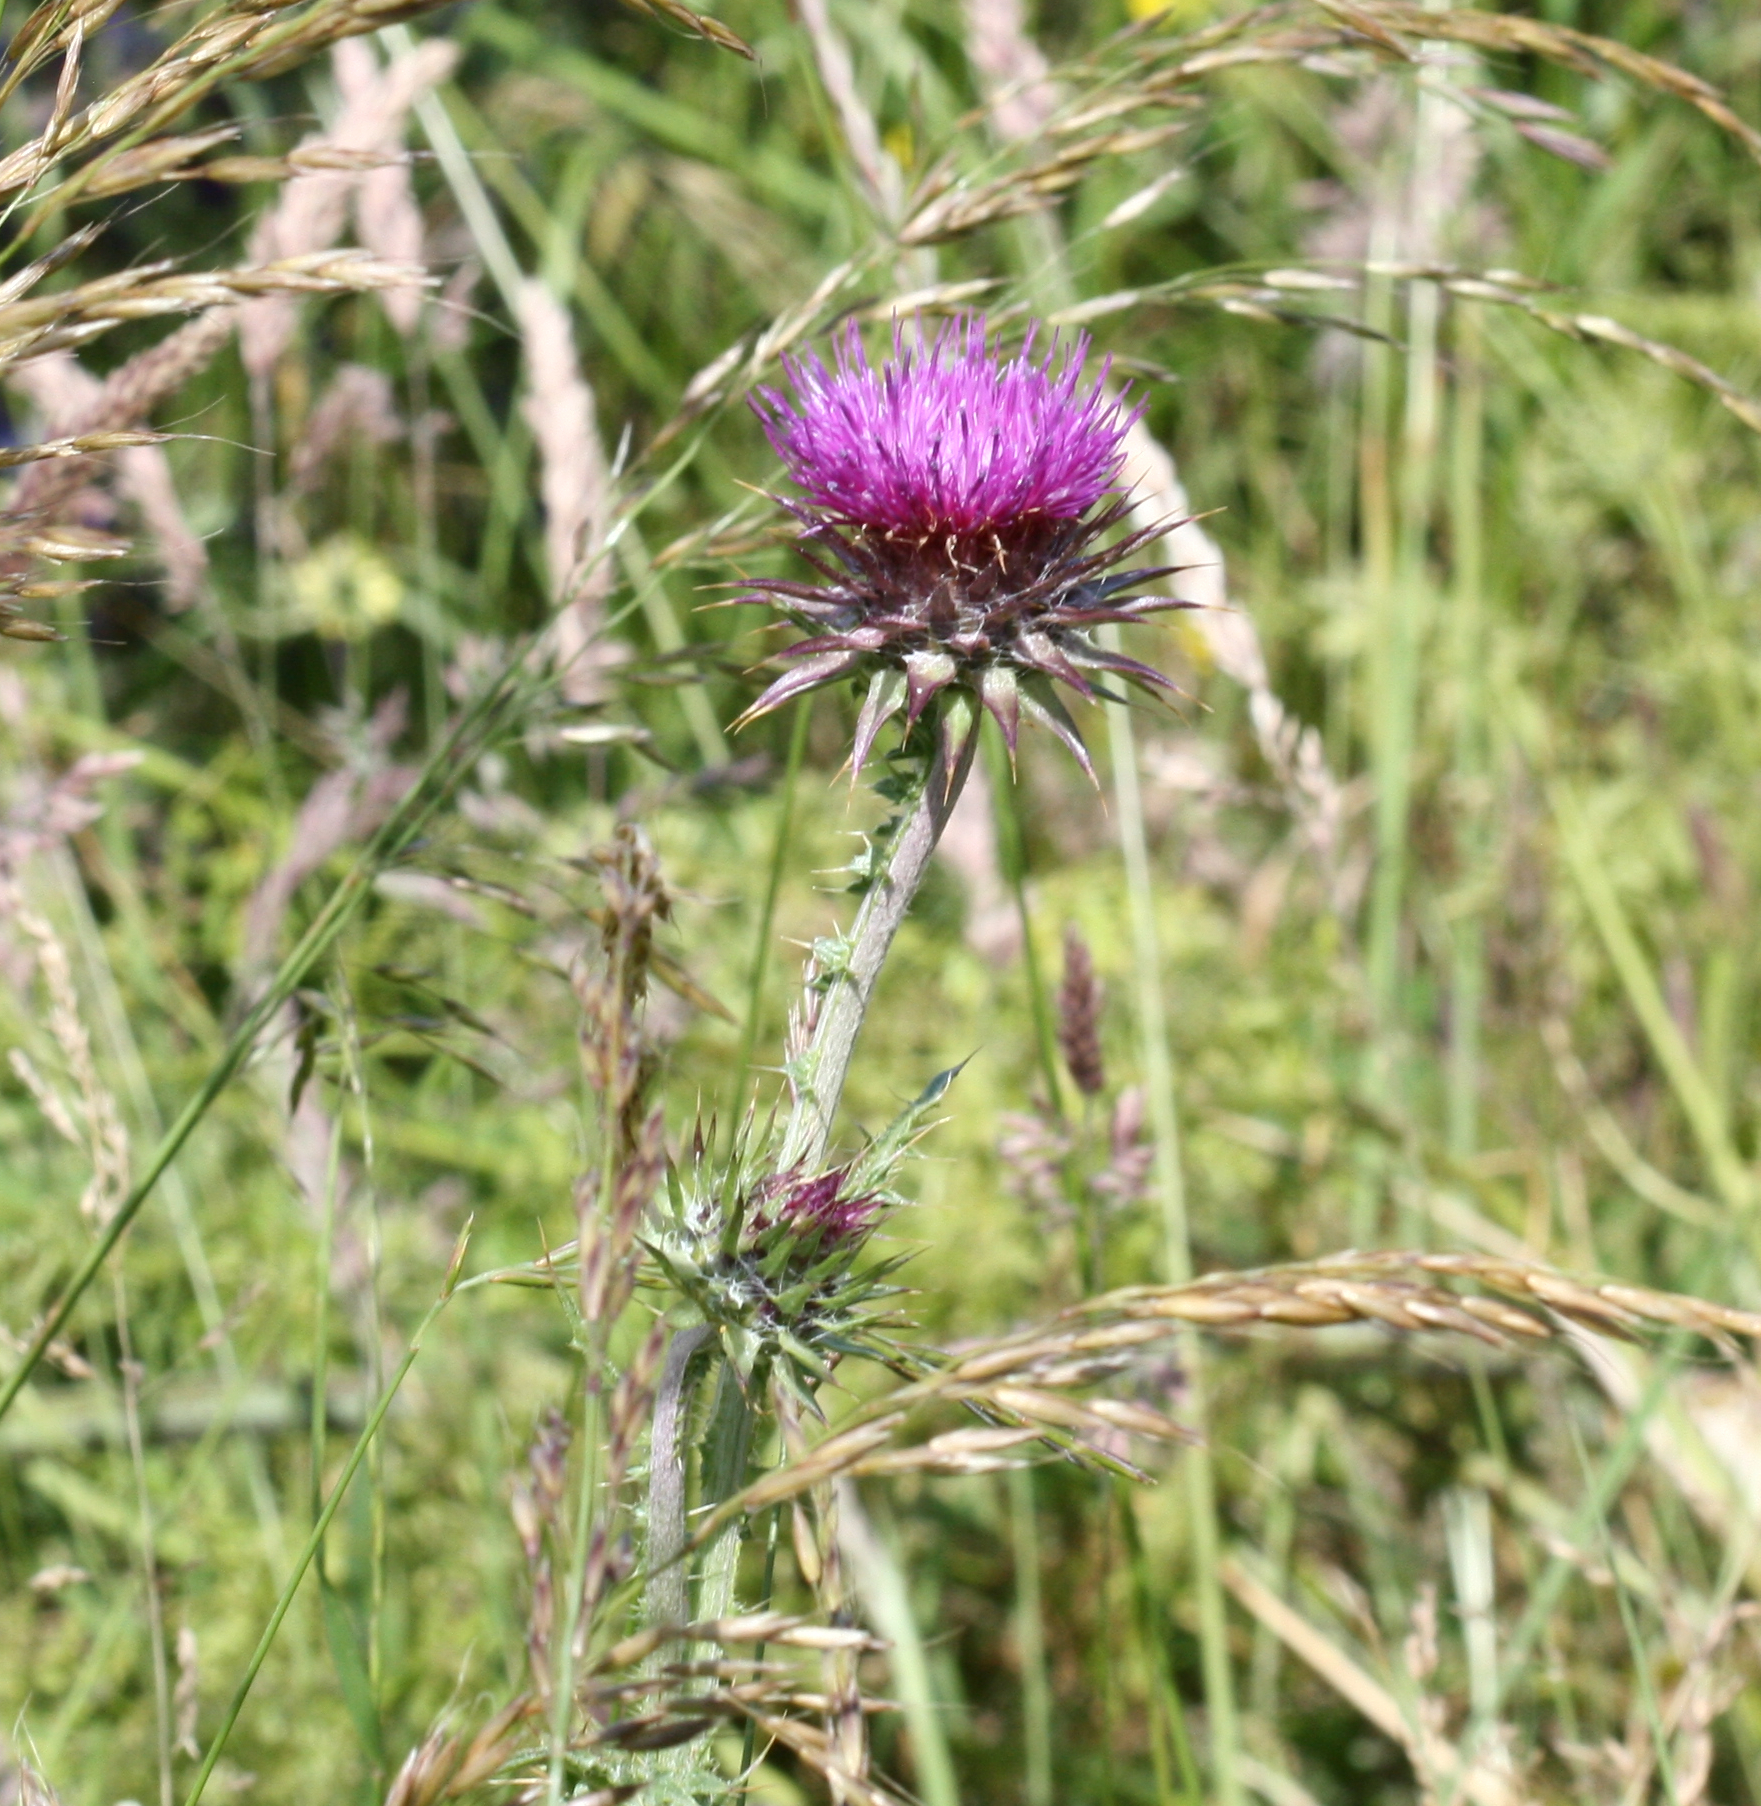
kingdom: Plantae
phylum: Tracheophyta
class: Magnoliopsida
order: Asterales
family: Asteraceae
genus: Carduus
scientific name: Carduus nutans
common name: Musk thistle
